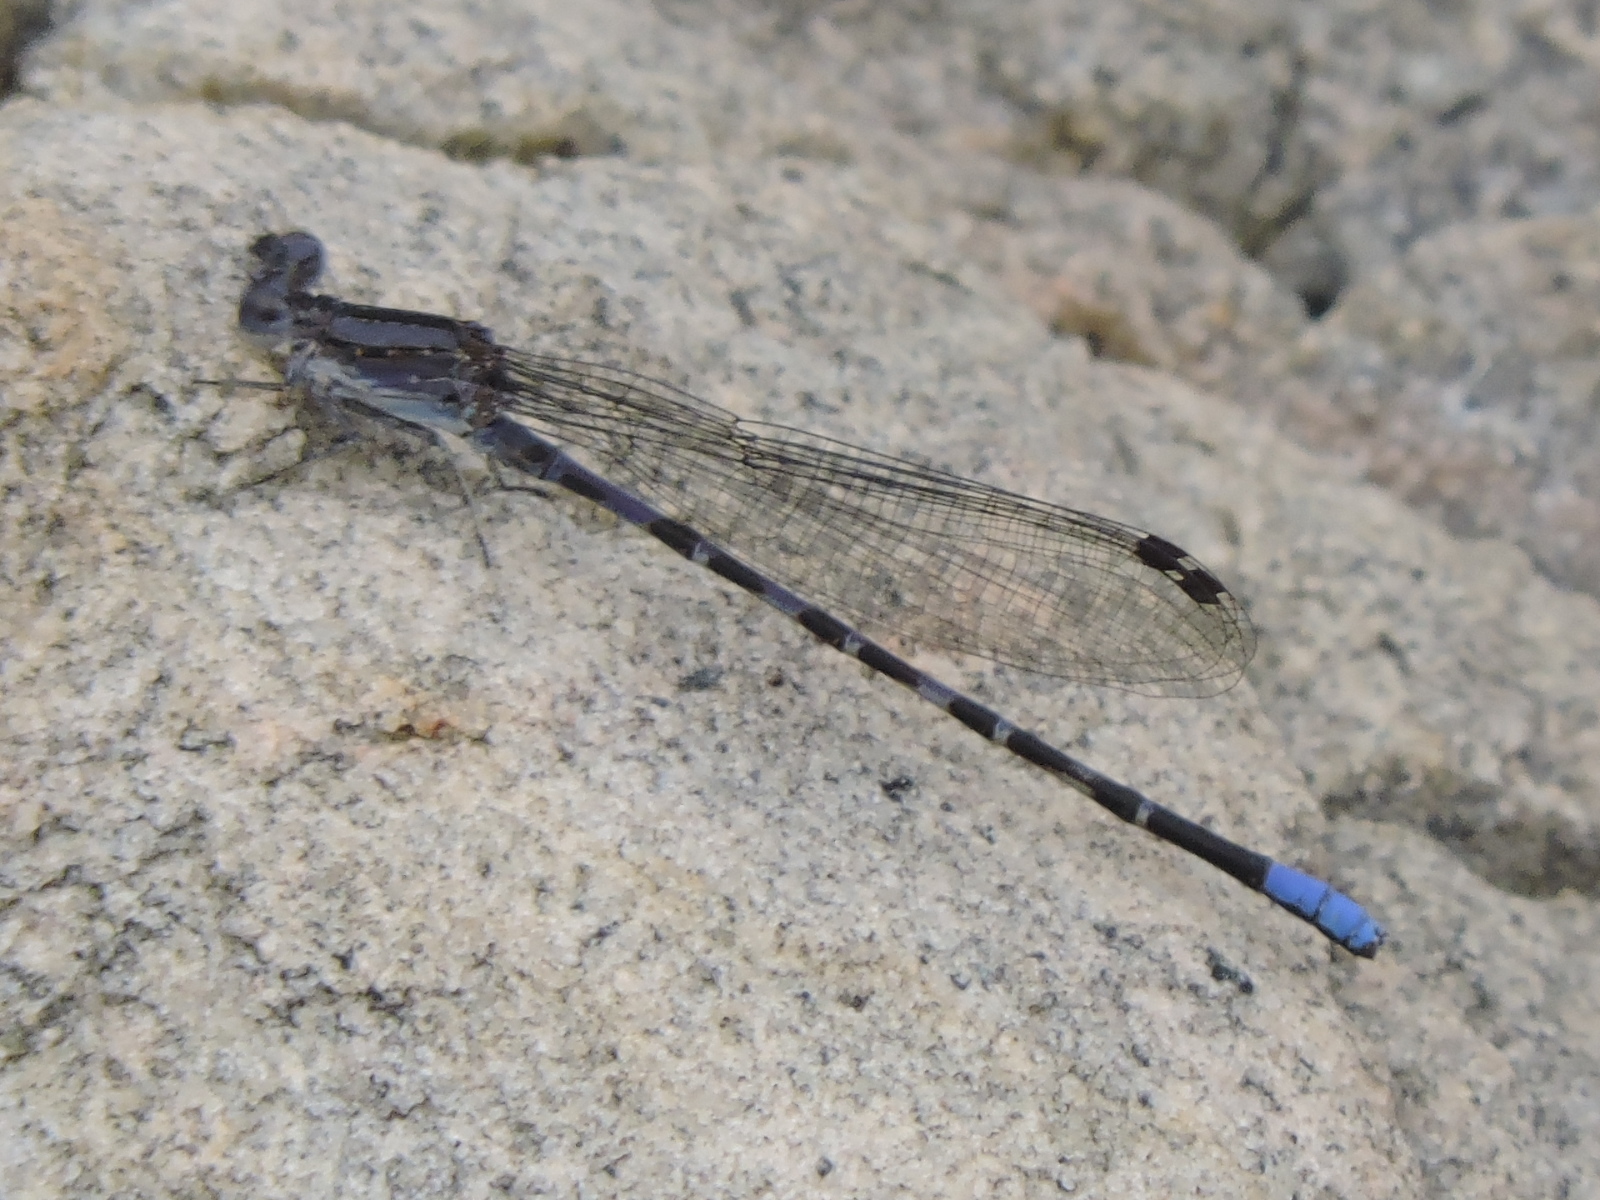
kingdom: Animalia
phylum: Arthropoda
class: Insecta
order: Odonata
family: Coenagrionidae
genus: Argia
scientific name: Argia immunda
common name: Kiowa dancer
